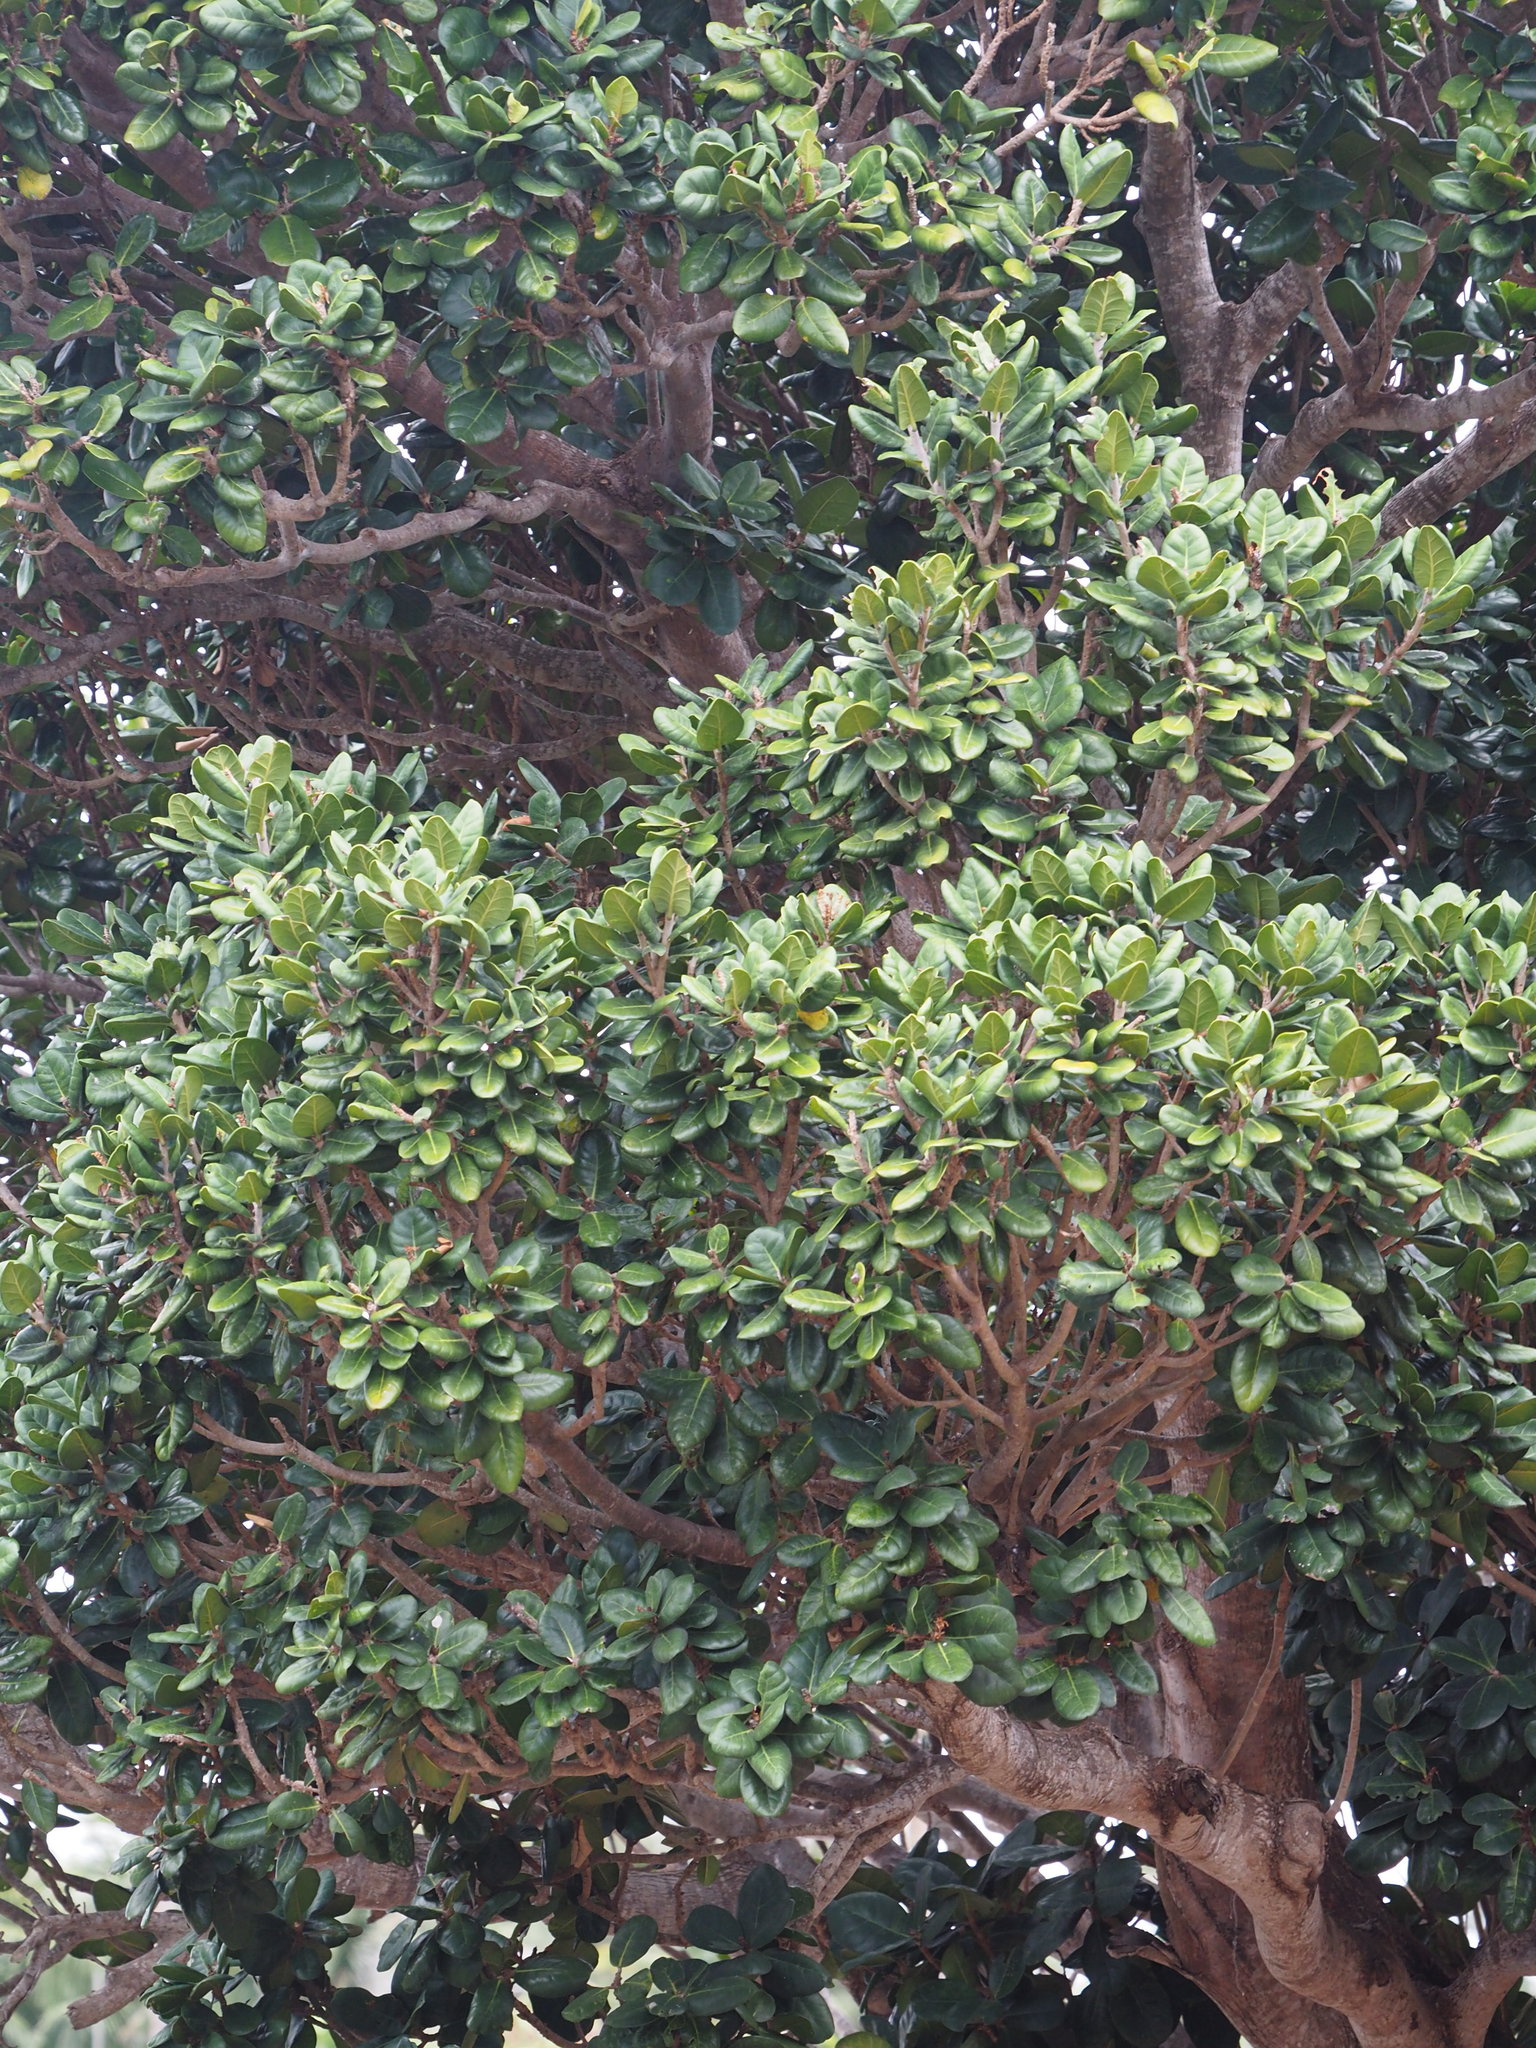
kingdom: Plantae
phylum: Tracheophyta
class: Magnoliopsida
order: Ericales
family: Sapotaceae
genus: Palaquium
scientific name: Palaquium formosanum
